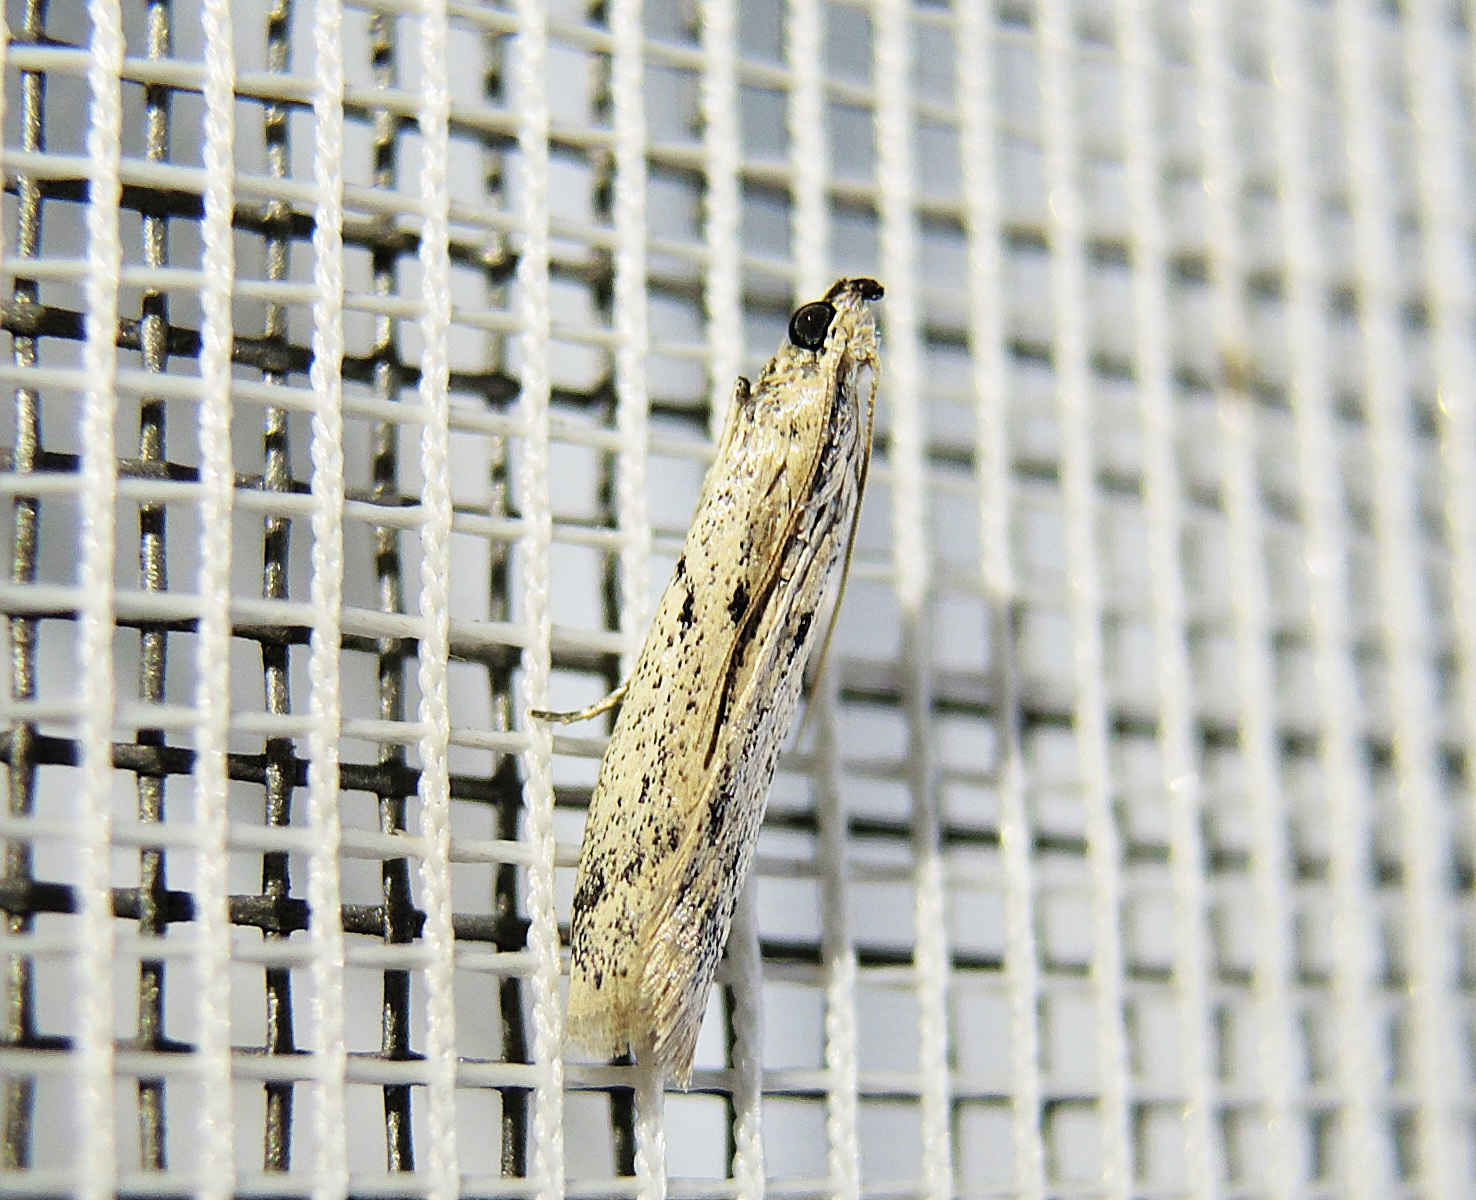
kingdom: Animalia
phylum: Arthropoda
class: Insecta
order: Lepidoptera
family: Pyralidae
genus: Phycitodes
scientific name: Phycitodes lacteella
